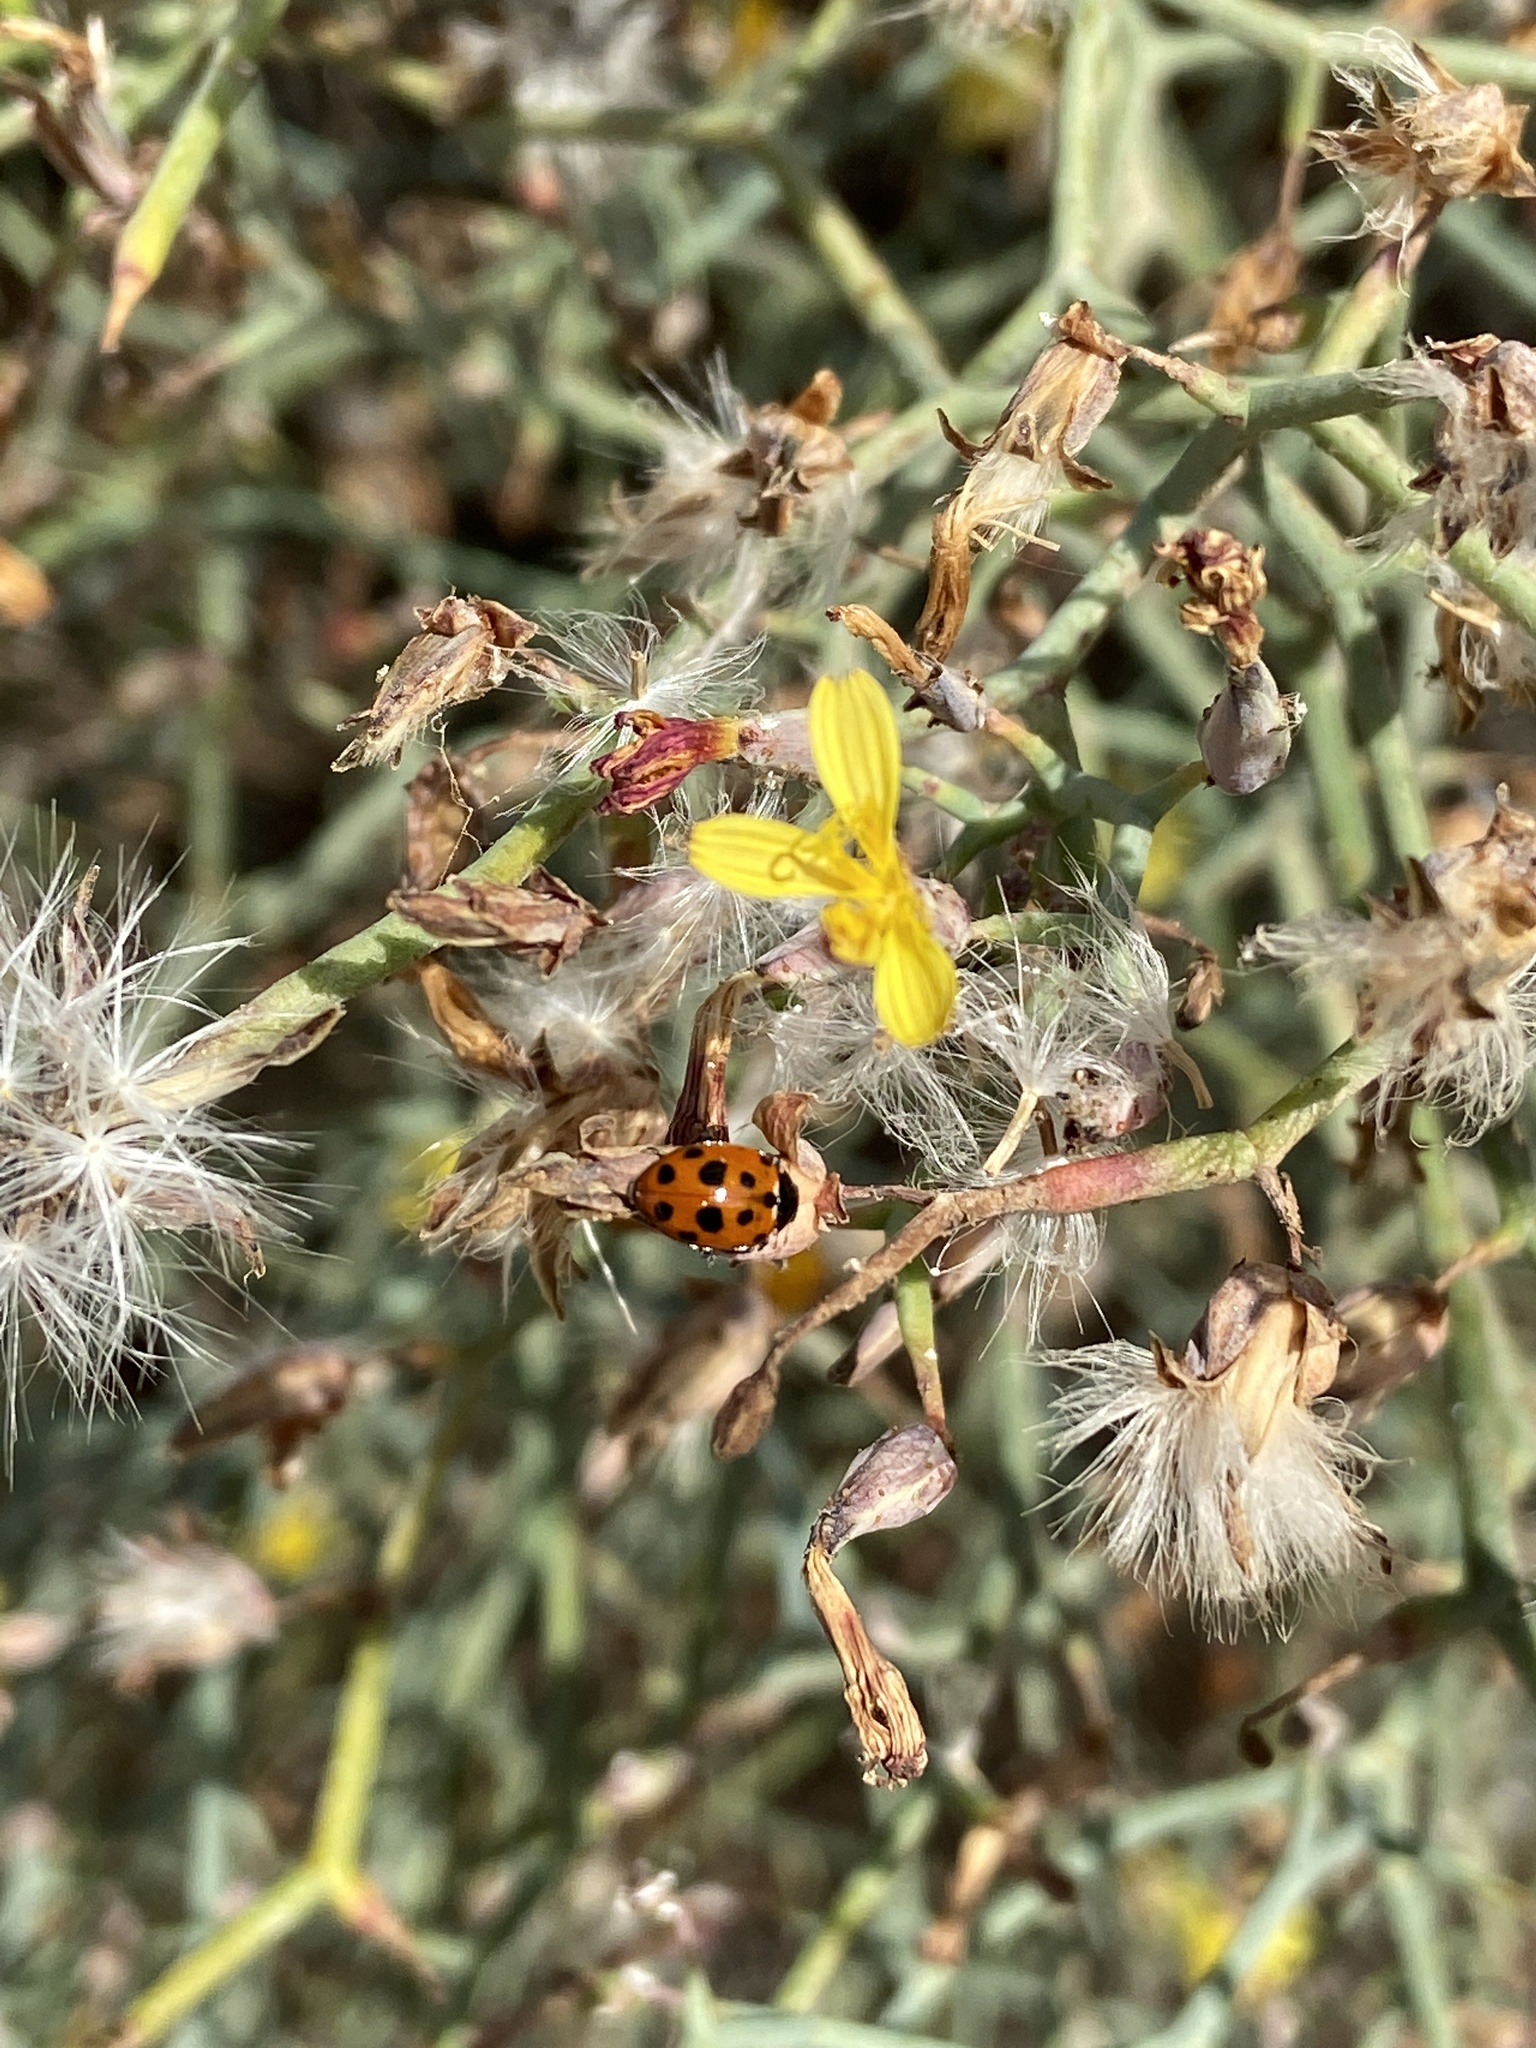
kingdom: Animalia
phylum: Arthropoda
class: Insecta
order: Coleoptera
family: Coccinellidae
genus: Hippodamia
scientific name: Hippodamia variegata
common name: Ladybird beetle
